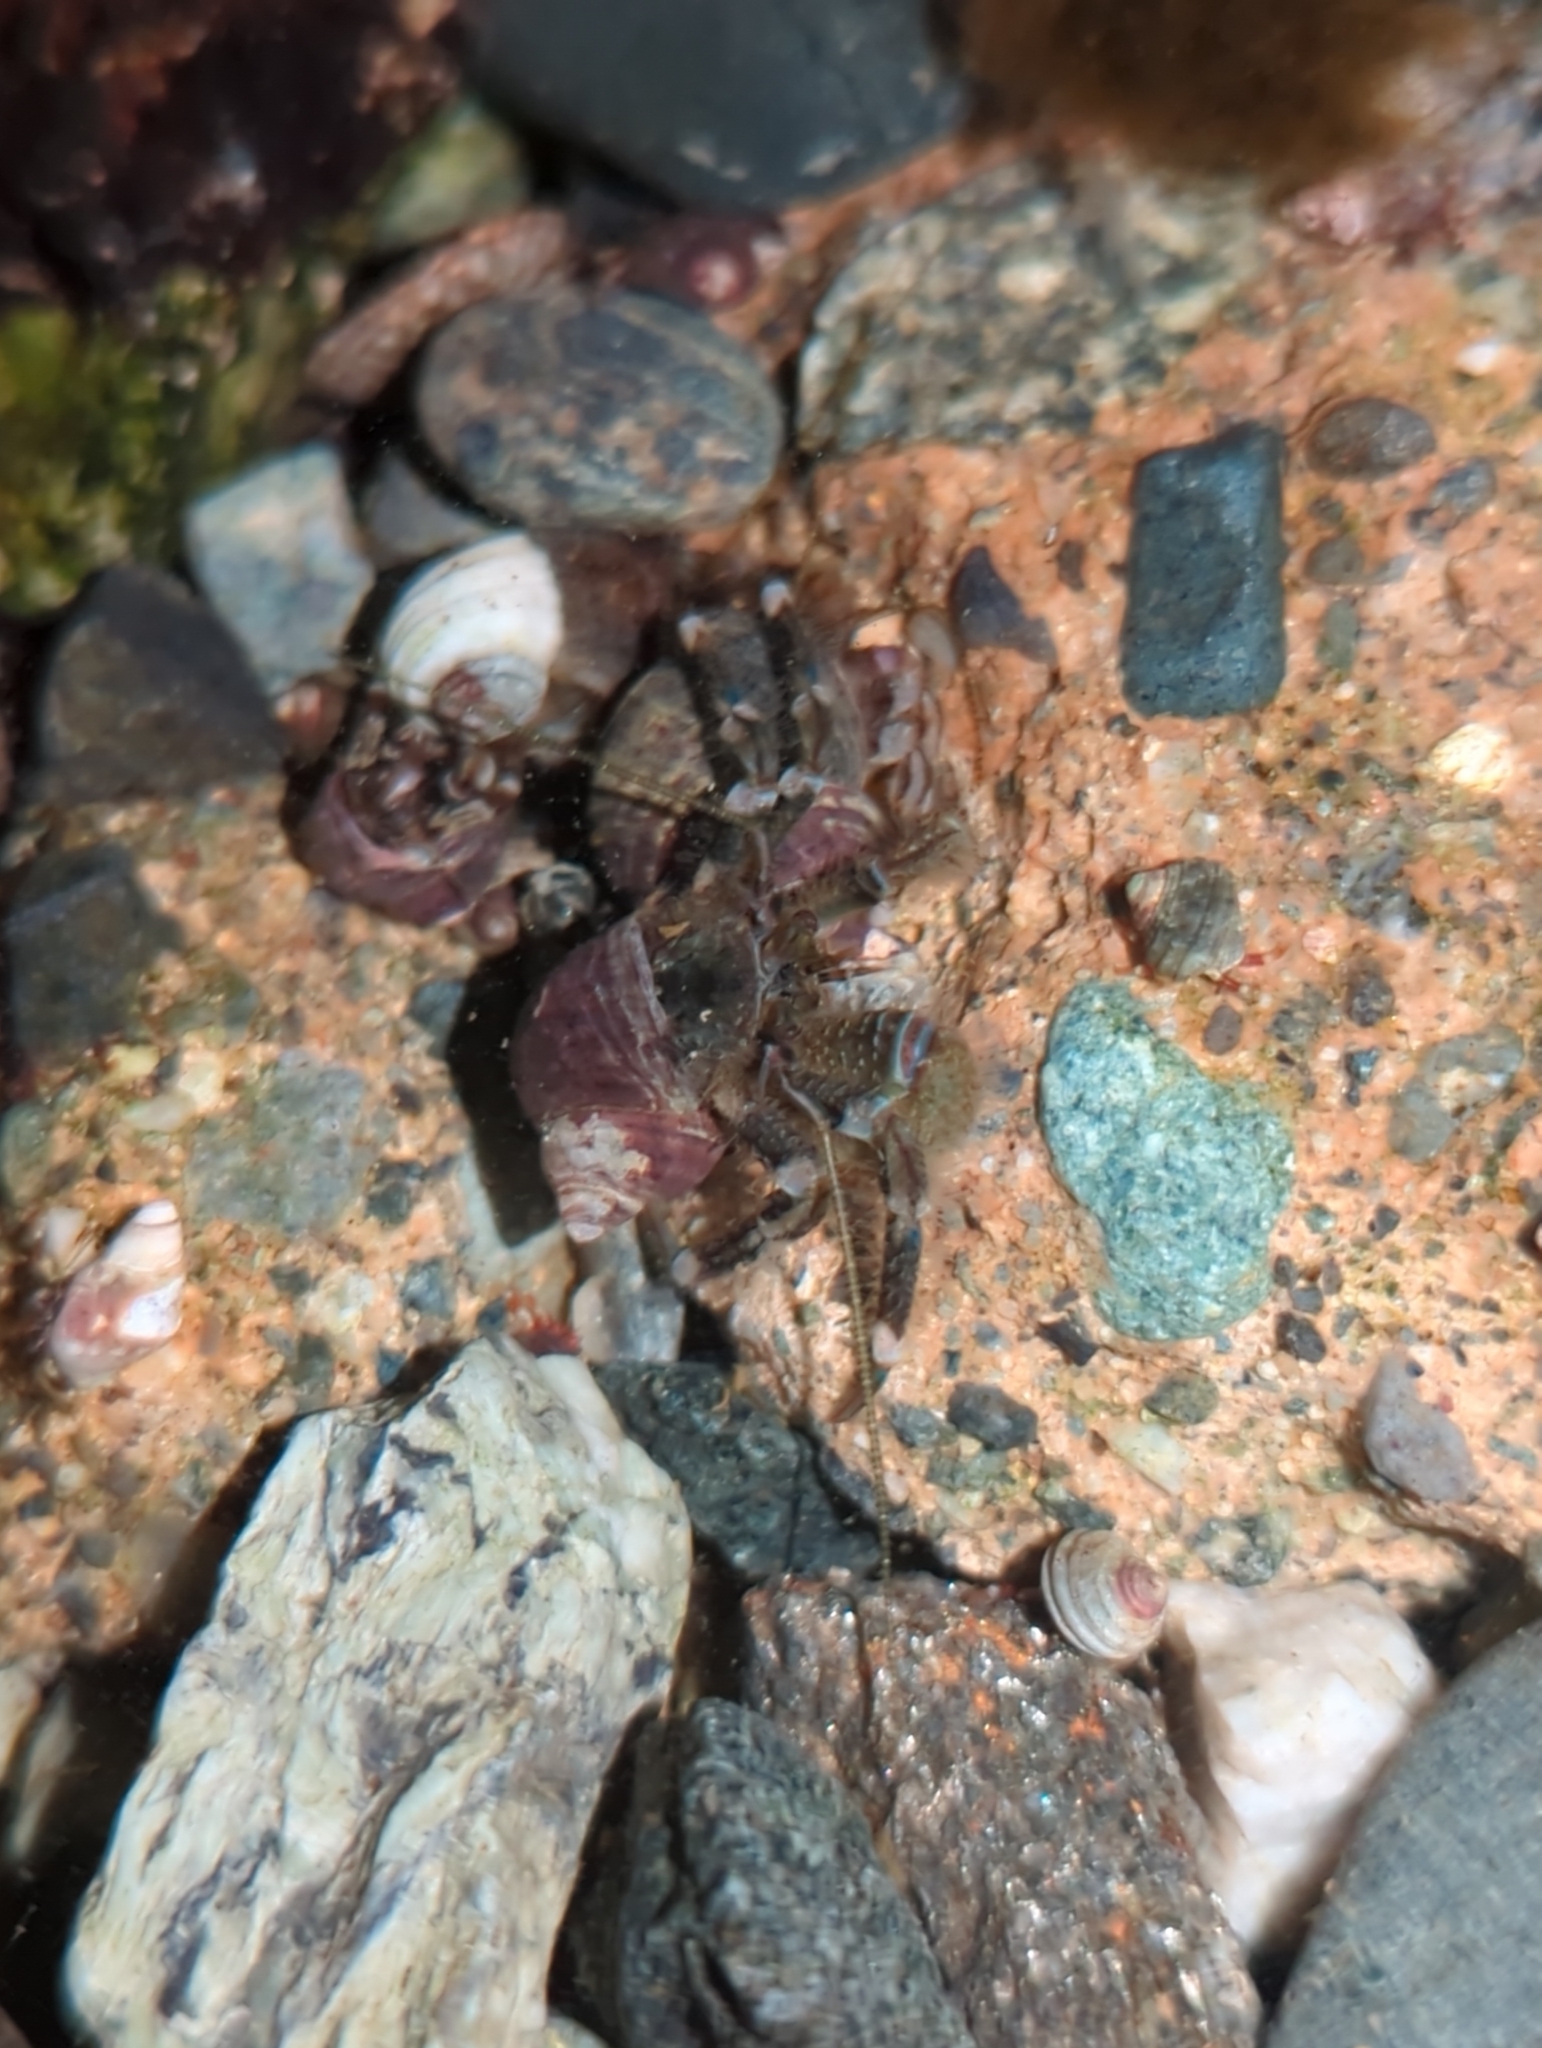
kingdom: Animalia
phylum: Arthropoda
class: Malacostraca
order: Decapoda
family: Paguridae
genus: Pagurus
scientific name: Pagurus hirsutiusculus
